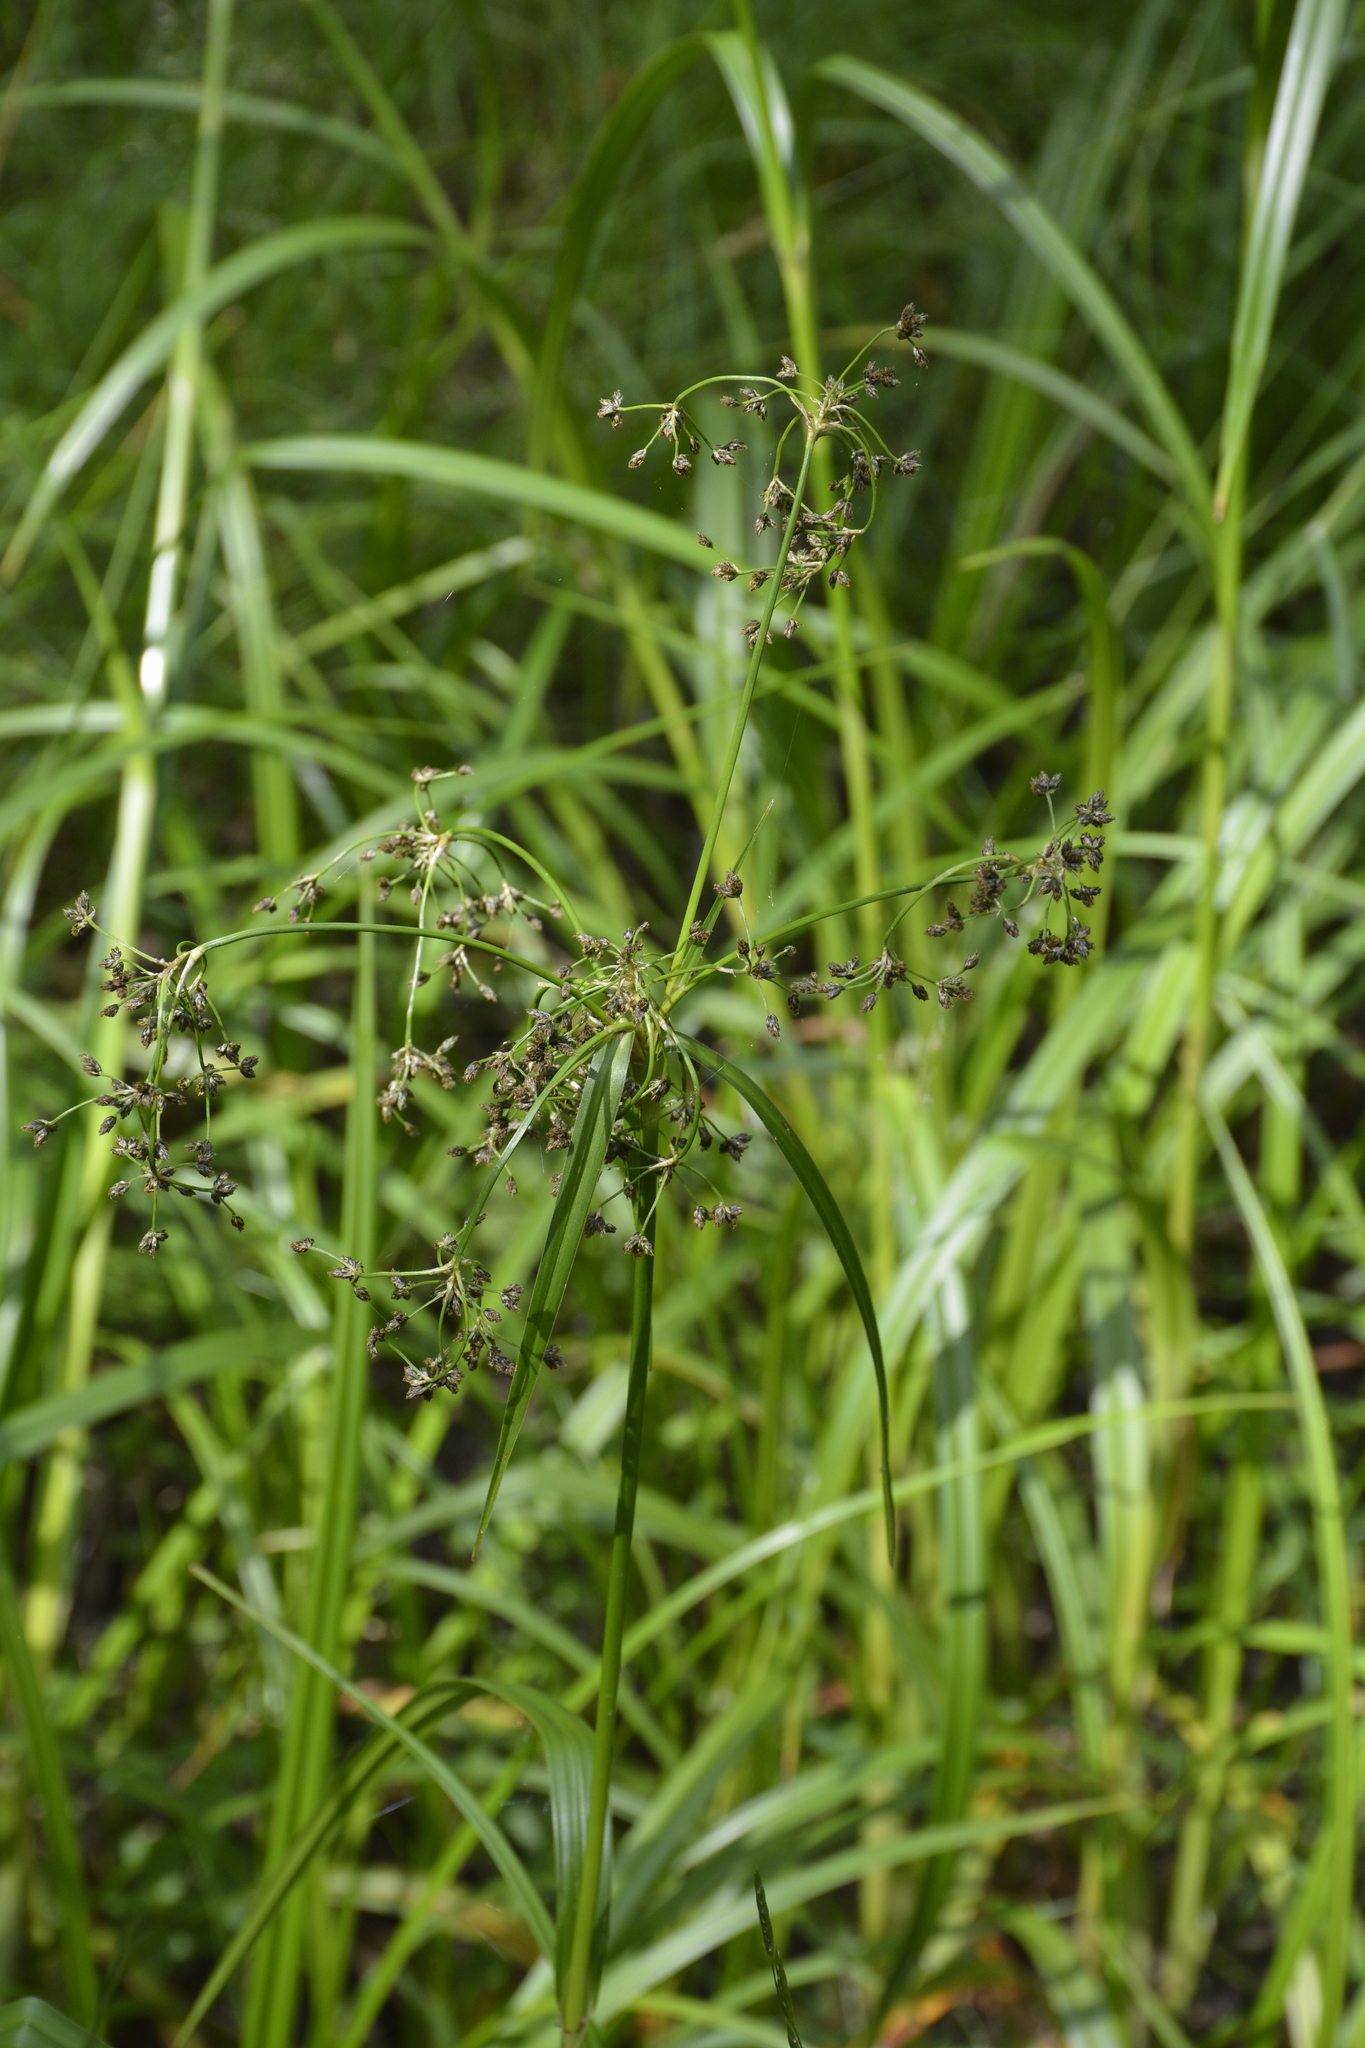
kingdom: Plantae
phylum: Tracheophyta
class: Liliopsida
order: Poales
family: Cyperaceae
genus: Scirpus
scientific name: Scirpus sylvaticus
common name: Wood club-rush
